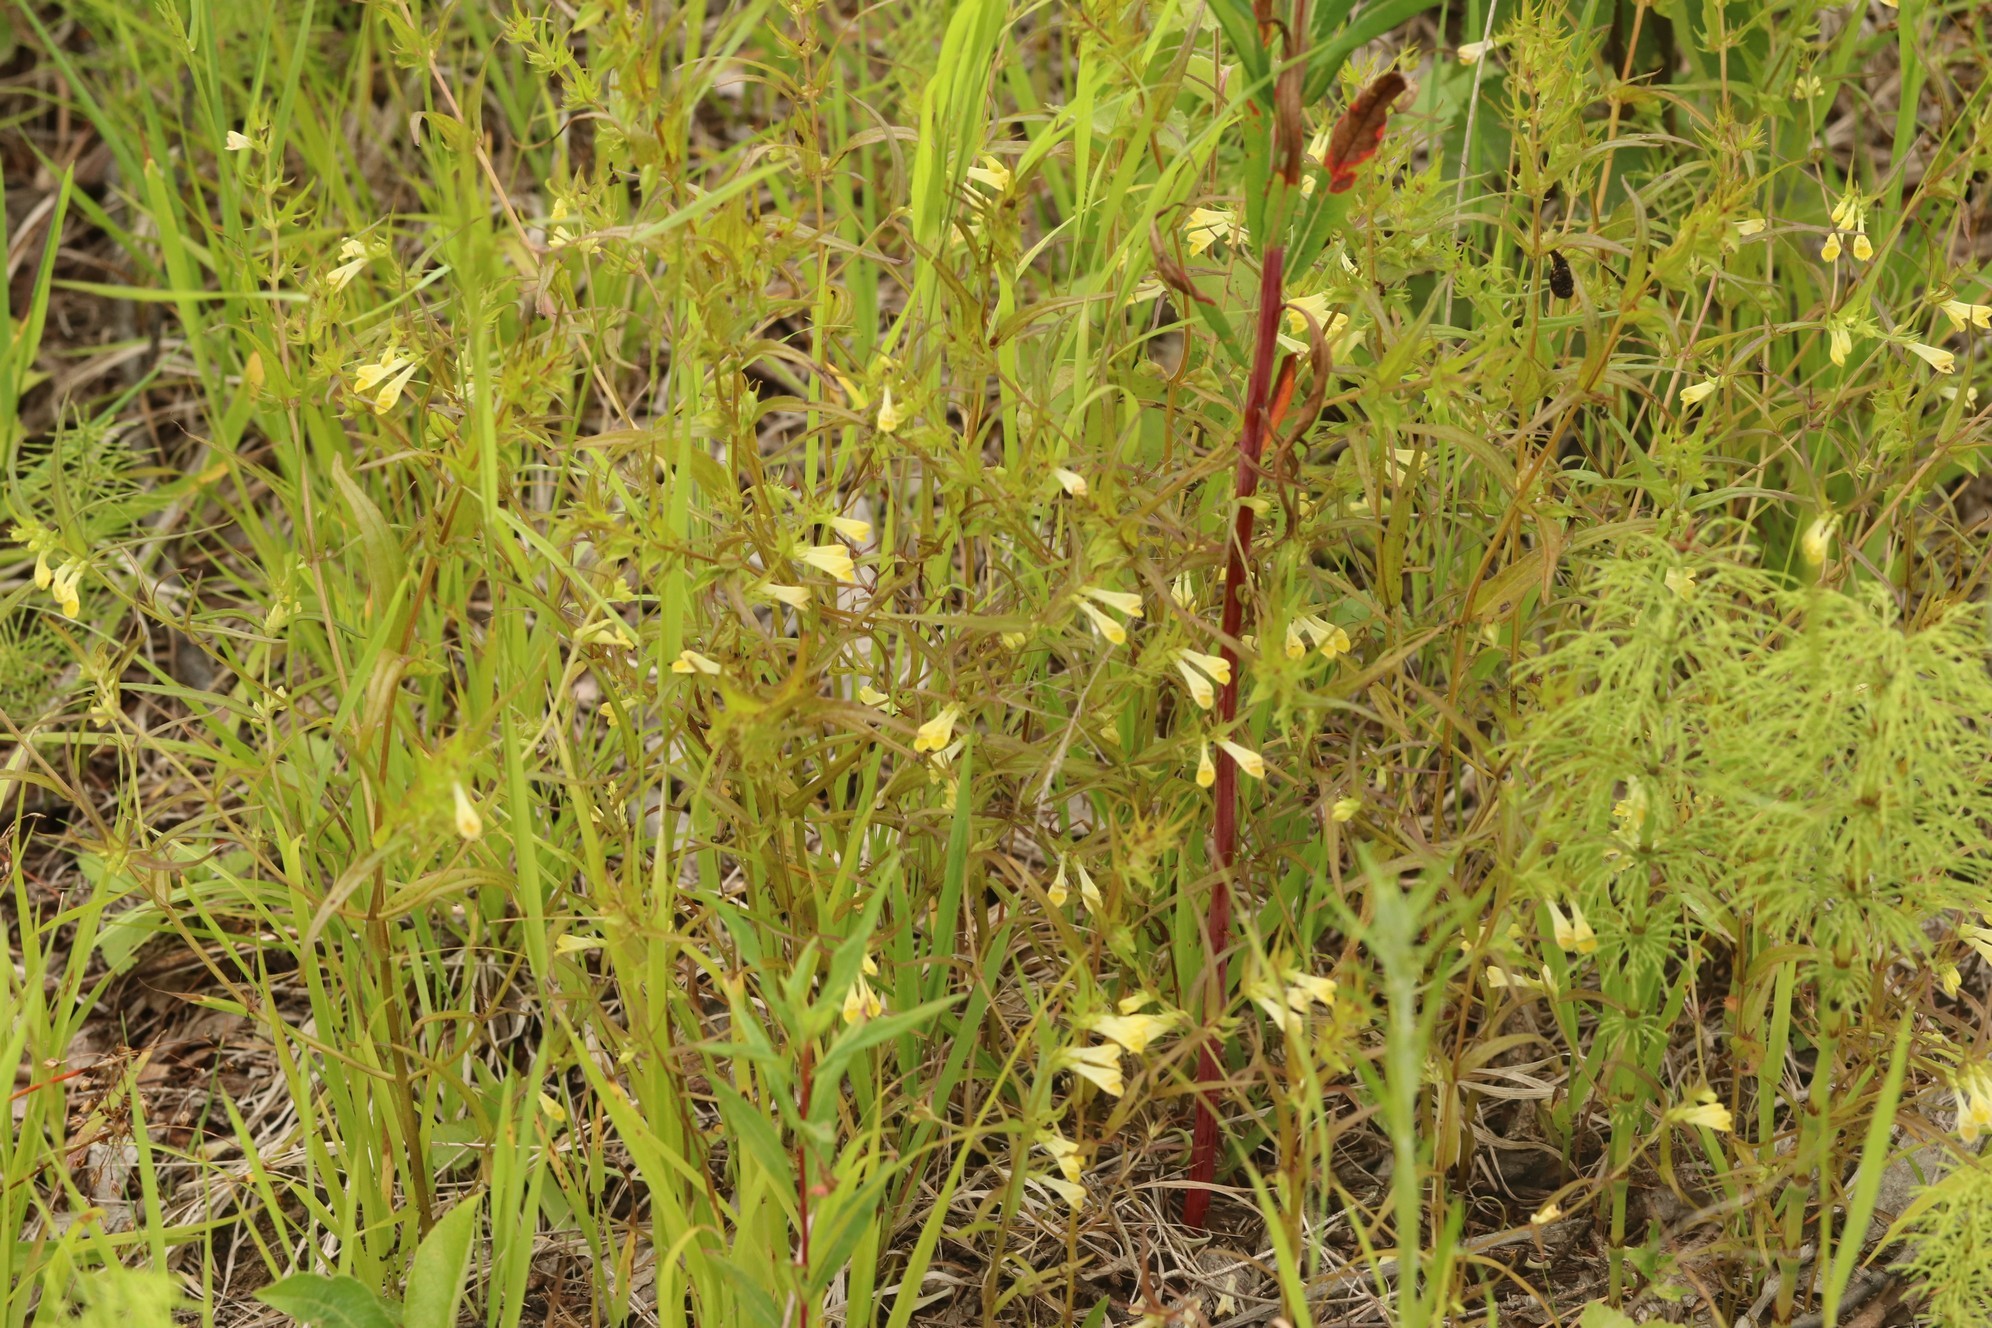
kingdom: Plantae
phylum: Tracheophyta
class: Magnoliopsida
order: Lamiales
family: Orobanchaceae
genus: Melampyrum
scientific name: Melampyrum pratense
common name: Common cow-wheat
